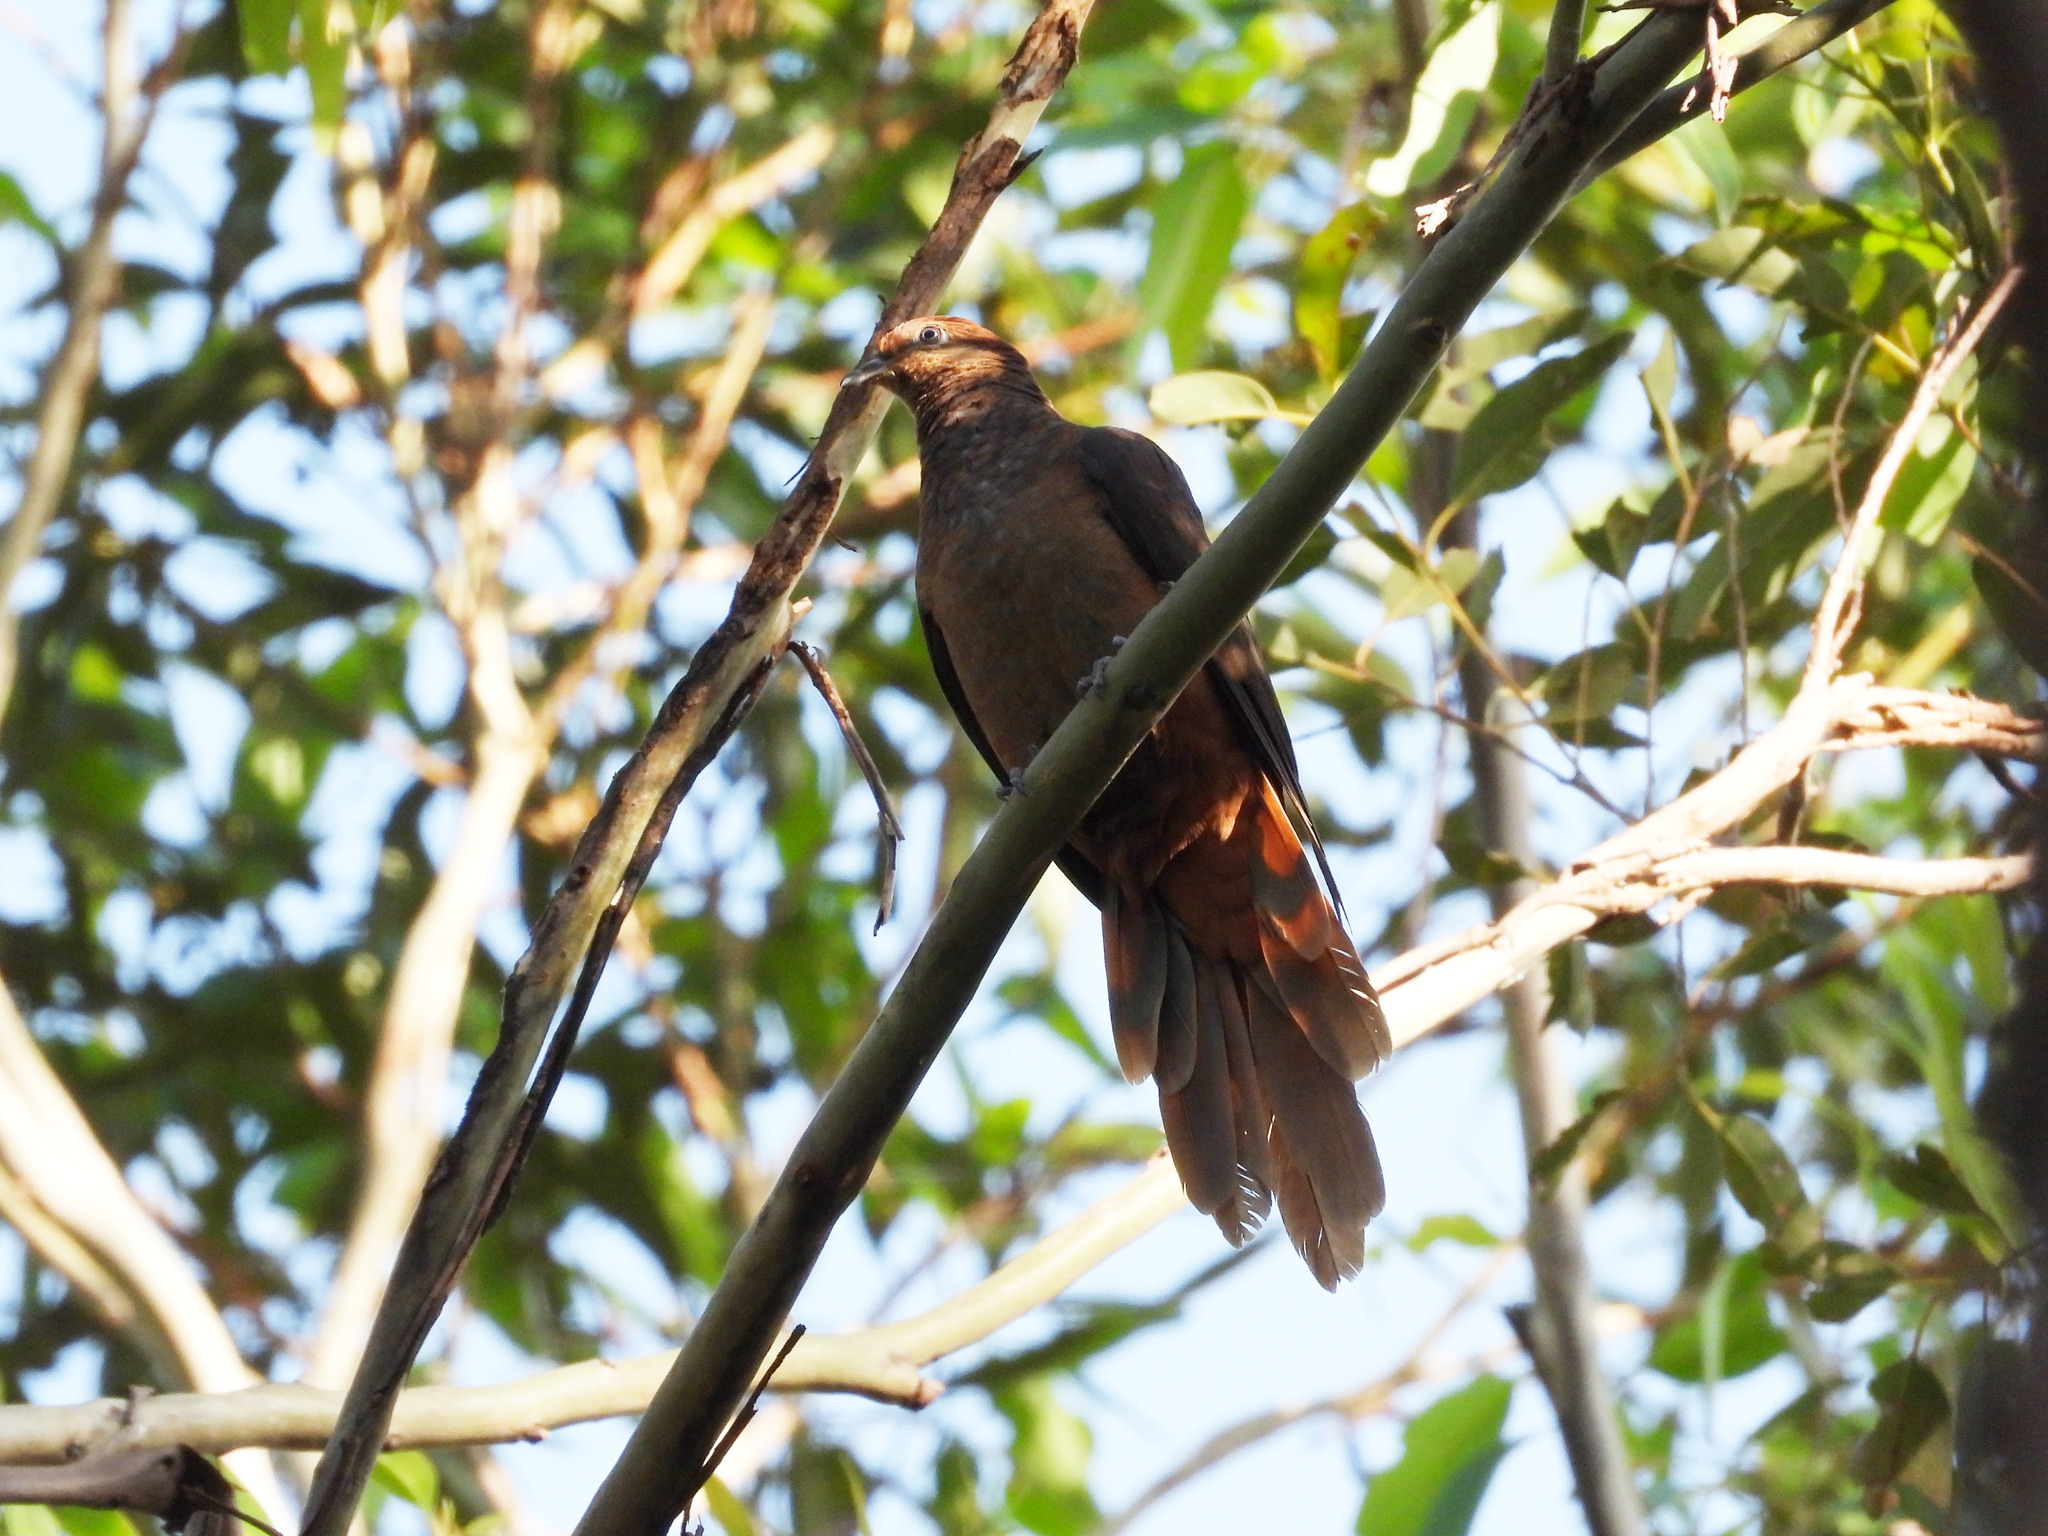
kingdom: Animalia
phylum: Chordata
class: Aves
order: Columbiformes
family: Columbidae
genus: Macropygia
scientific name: Macropygia phasianella
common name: Brown cuckoo-dove
